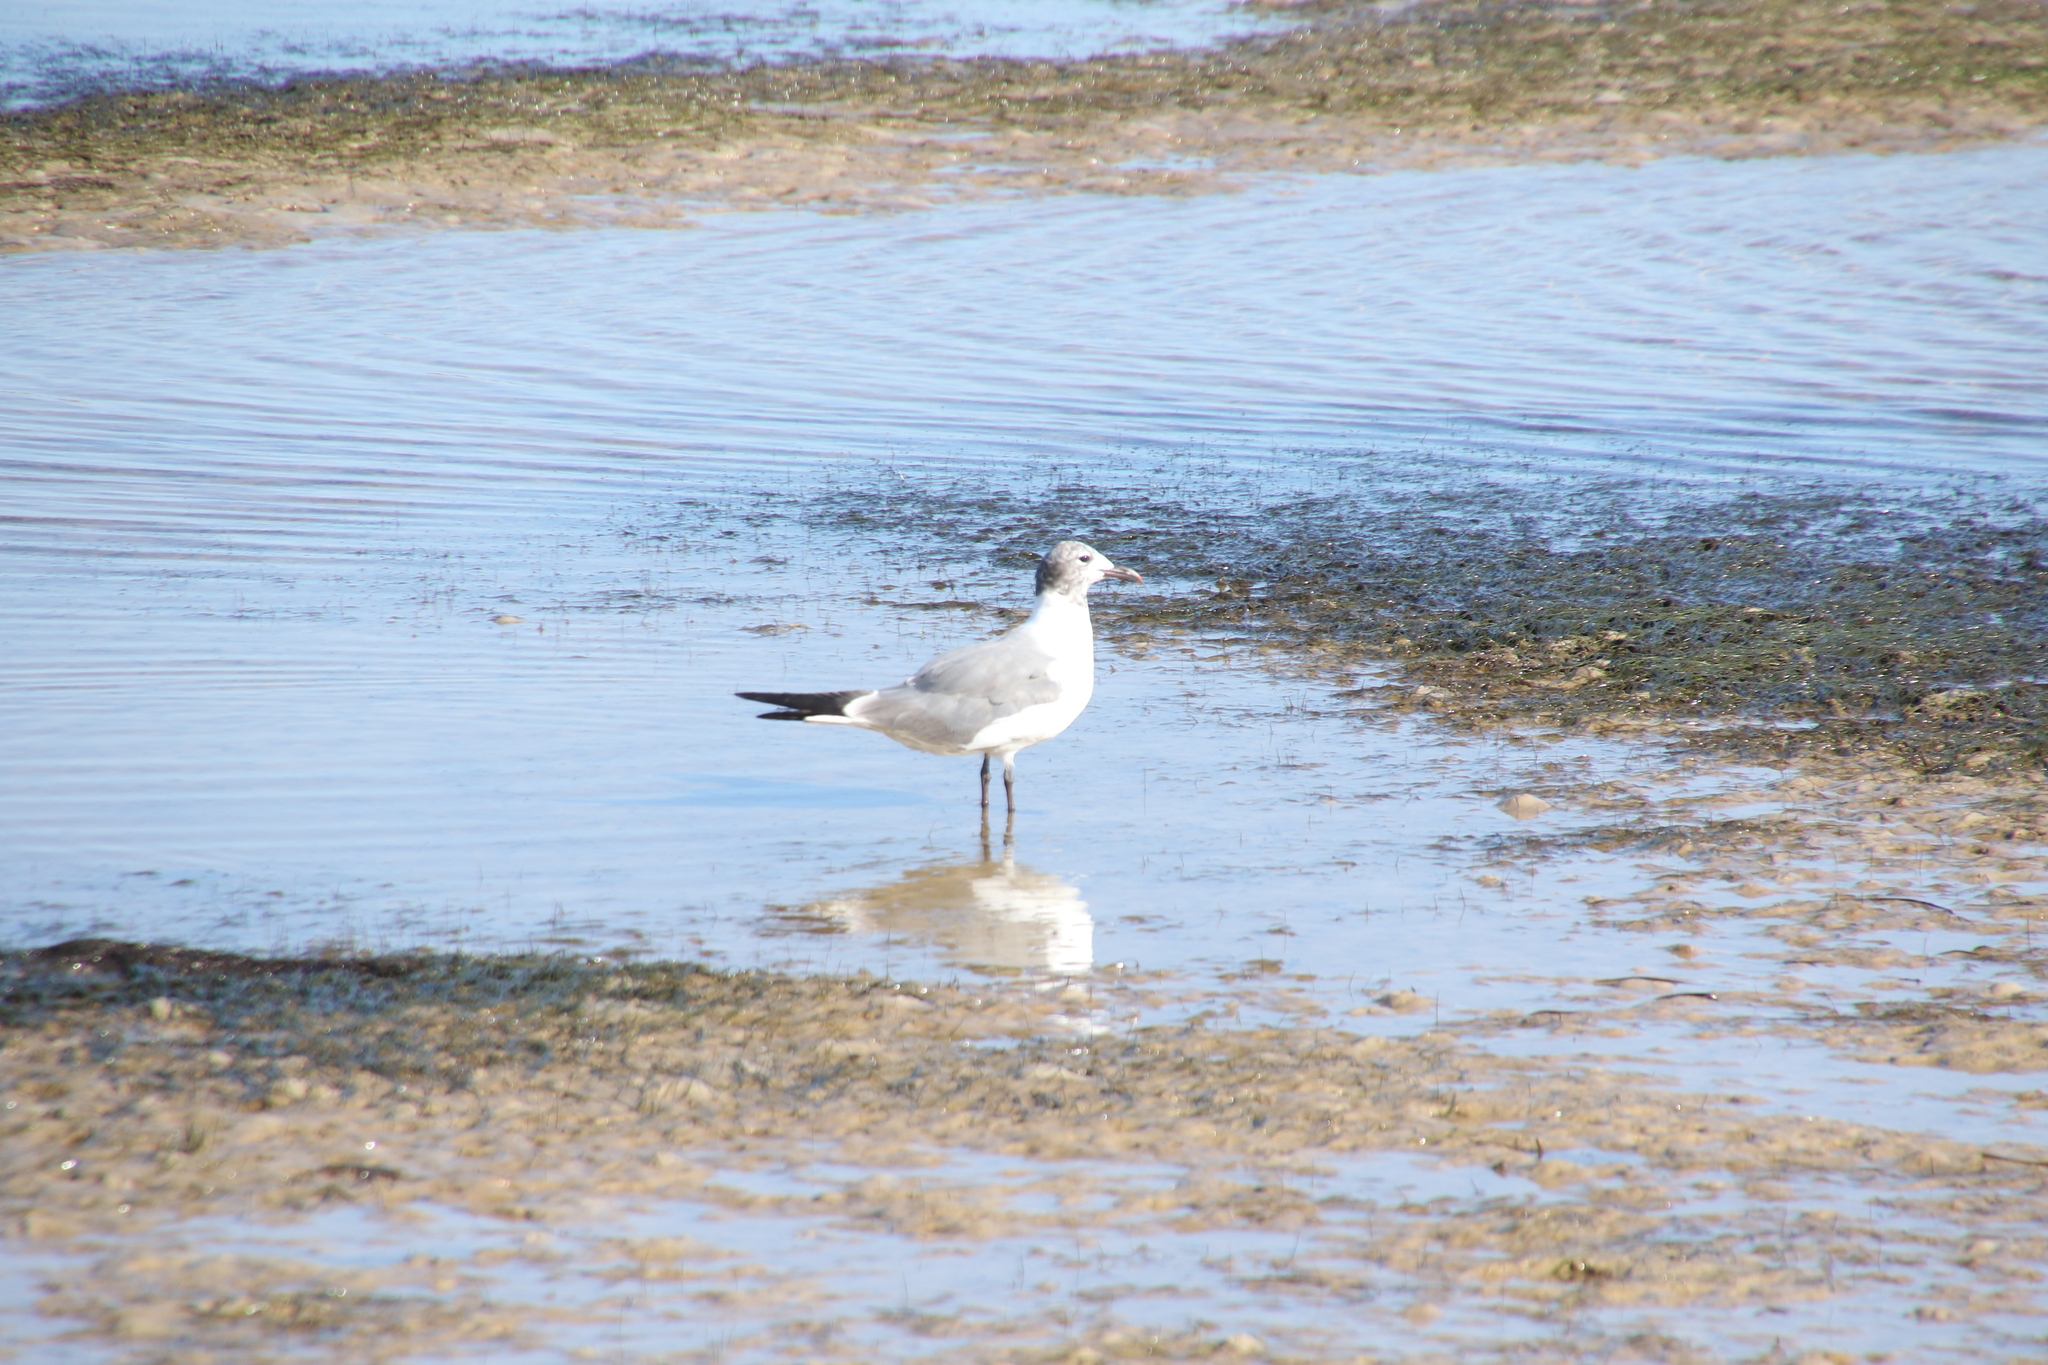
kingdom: Animalia
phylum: Chordata
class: Aves
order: Charadriiformes
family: Laridae
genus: Leucophaeus
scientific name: Leucophaeus atricilla
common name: Laughing gull
